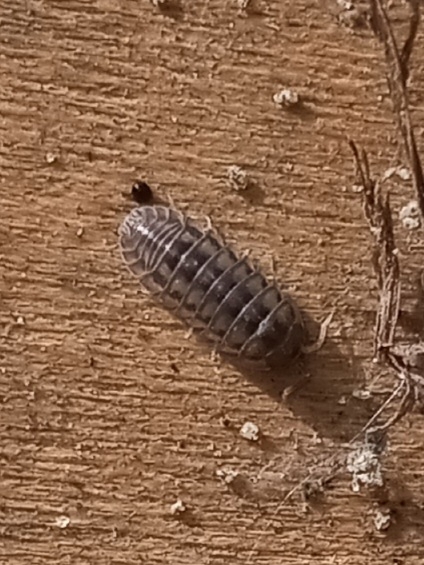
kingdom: Animalia
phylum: Arthropoda
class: Malacostraca
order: Isopoda
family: Armadillidiidae
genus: Armadillidium
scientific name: Armadillidium nasatum
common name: Isopod
